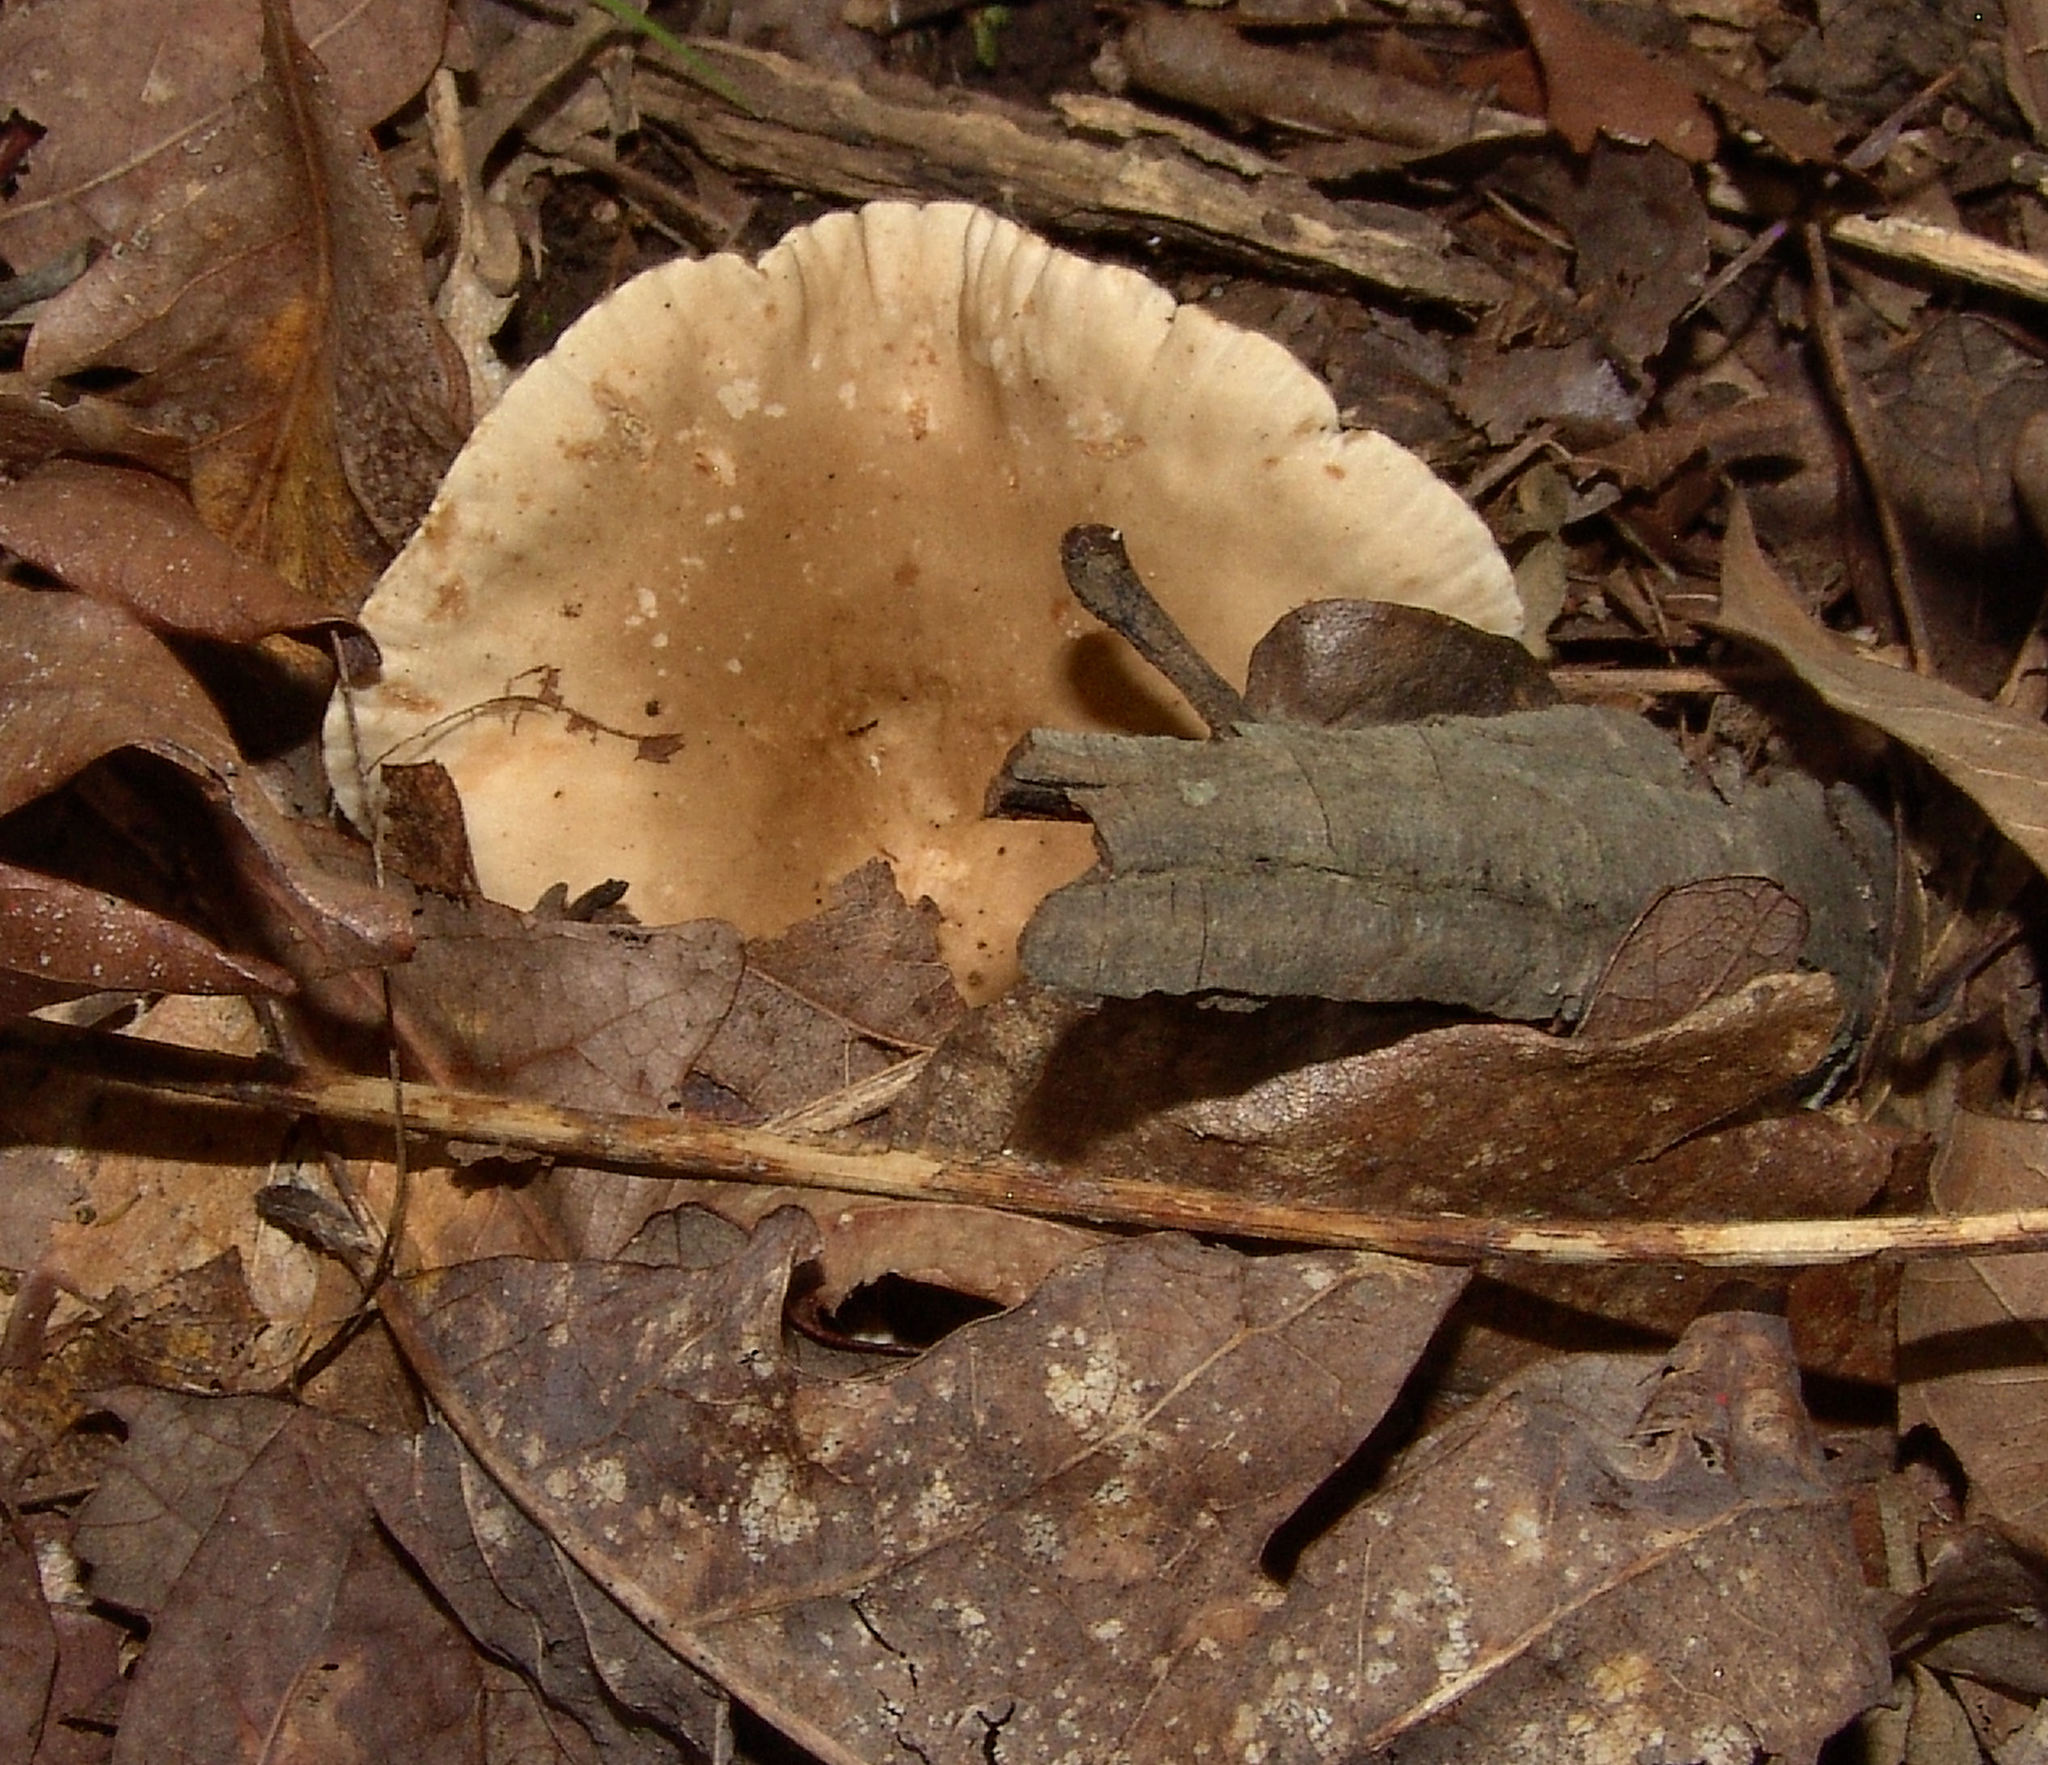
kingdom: Fungi
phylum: Basidiomycota
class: Agaricomycetes
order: Russulales
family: Russulaceae
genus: Lactarius
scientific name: Lactarius subplinthogalus
